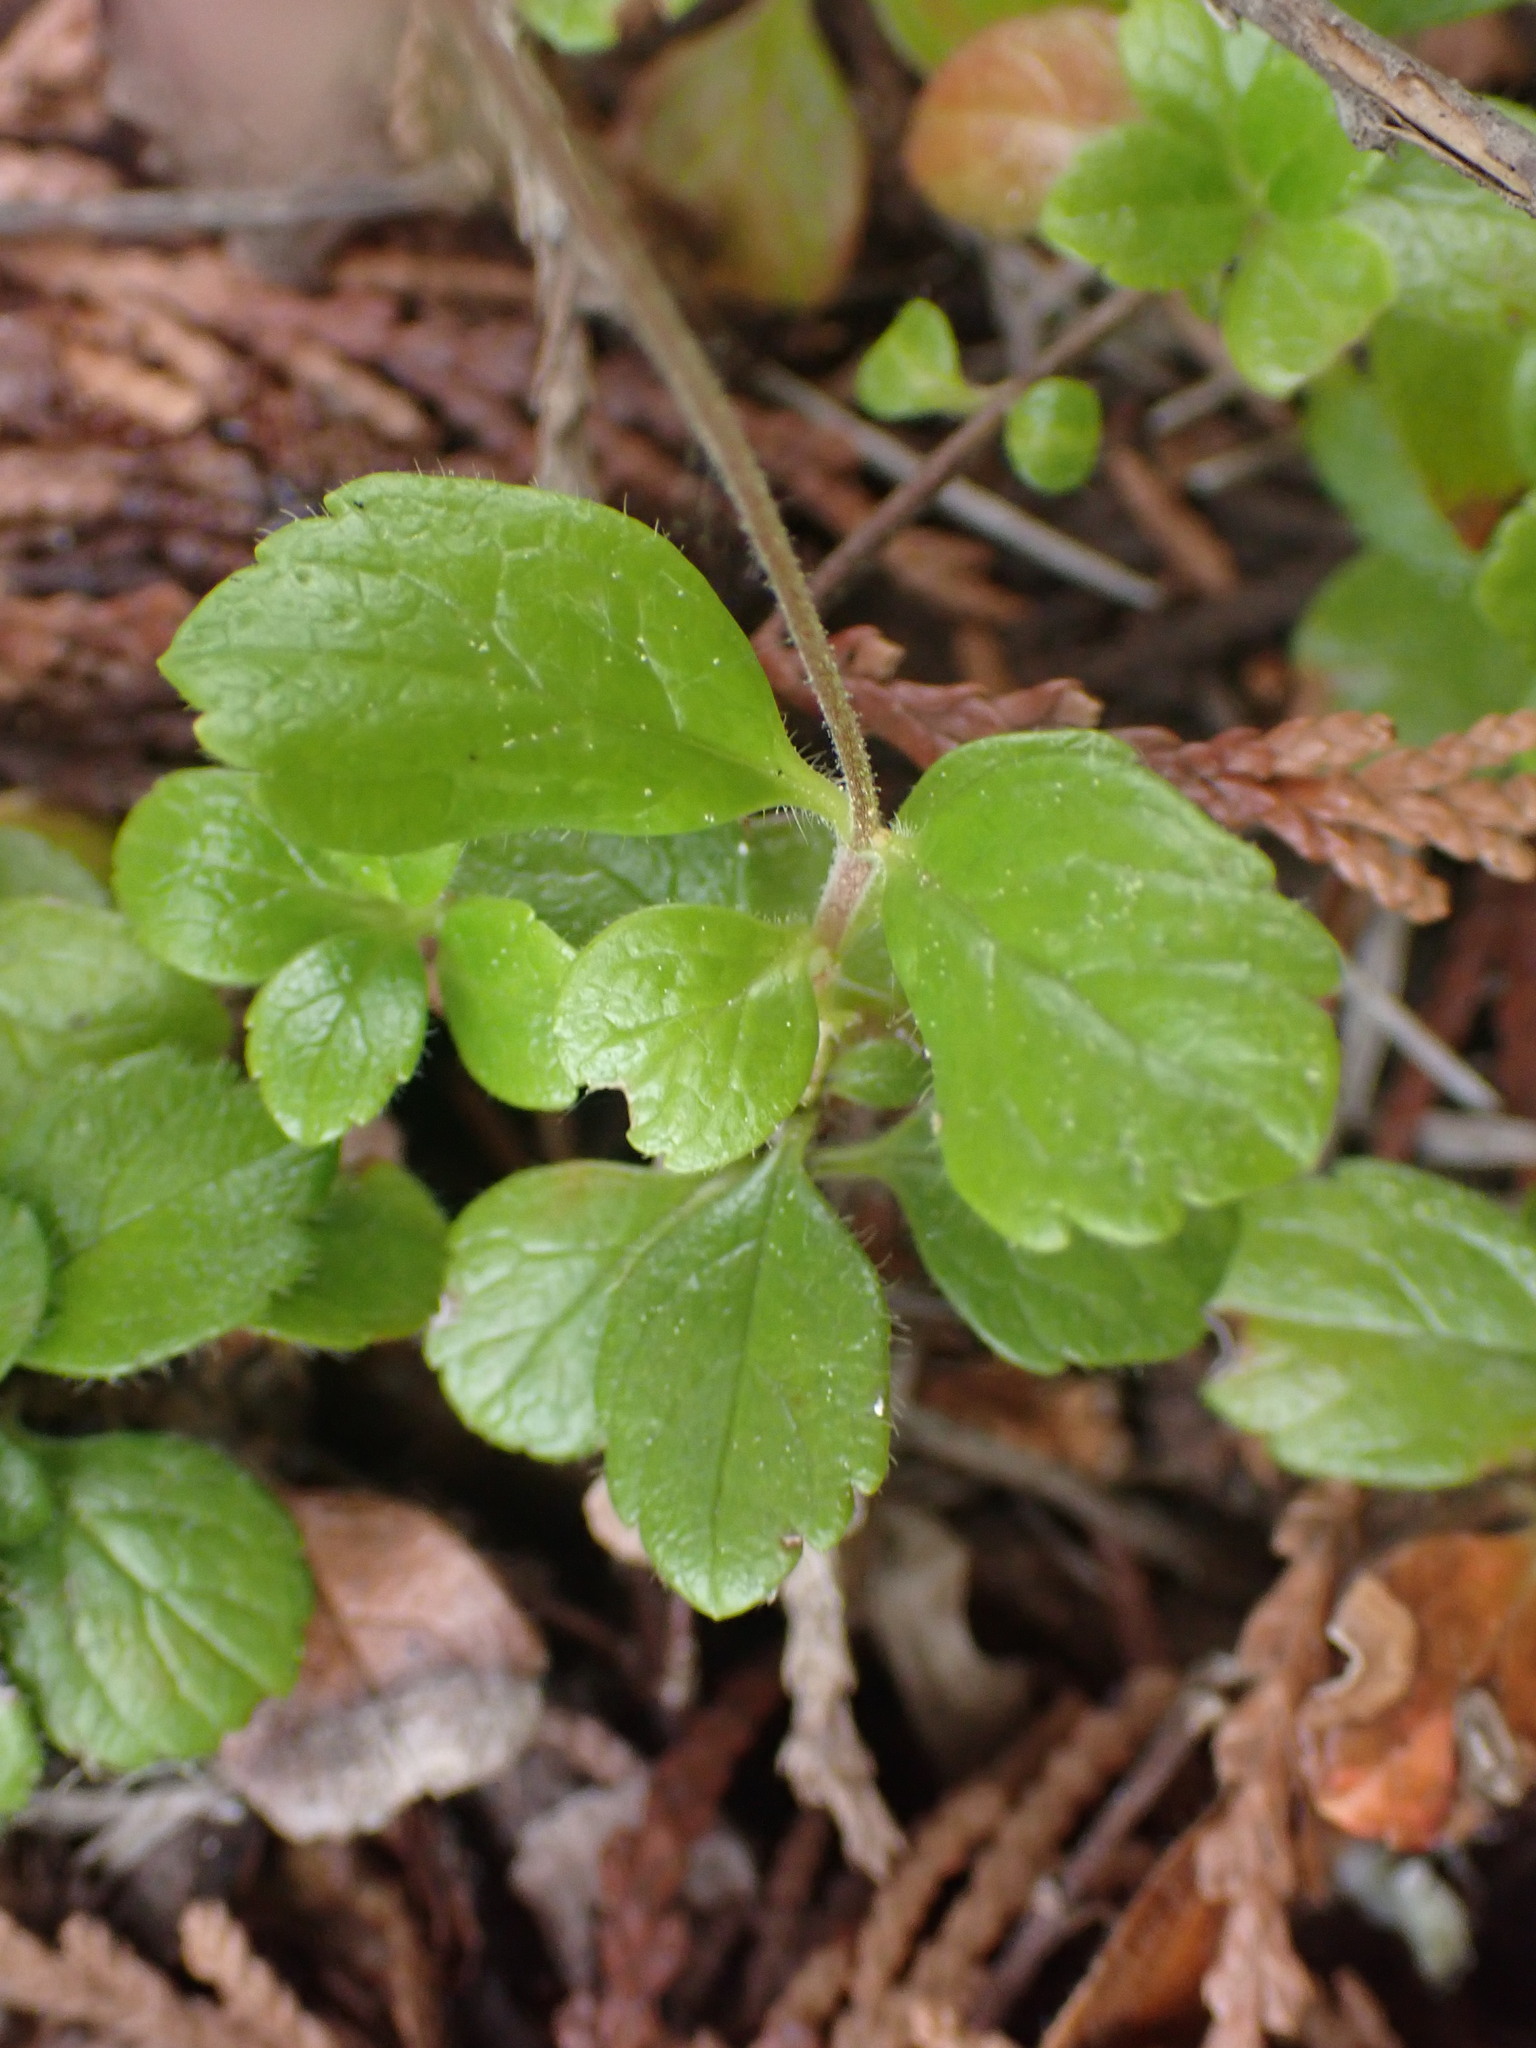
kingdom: Plantae
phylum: Tracheophyta
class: Magnoliopsida
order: Dipsacales
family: Caprifoliaceae
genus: Linnaea
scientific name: Linnaea borealis
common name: Twinflower
